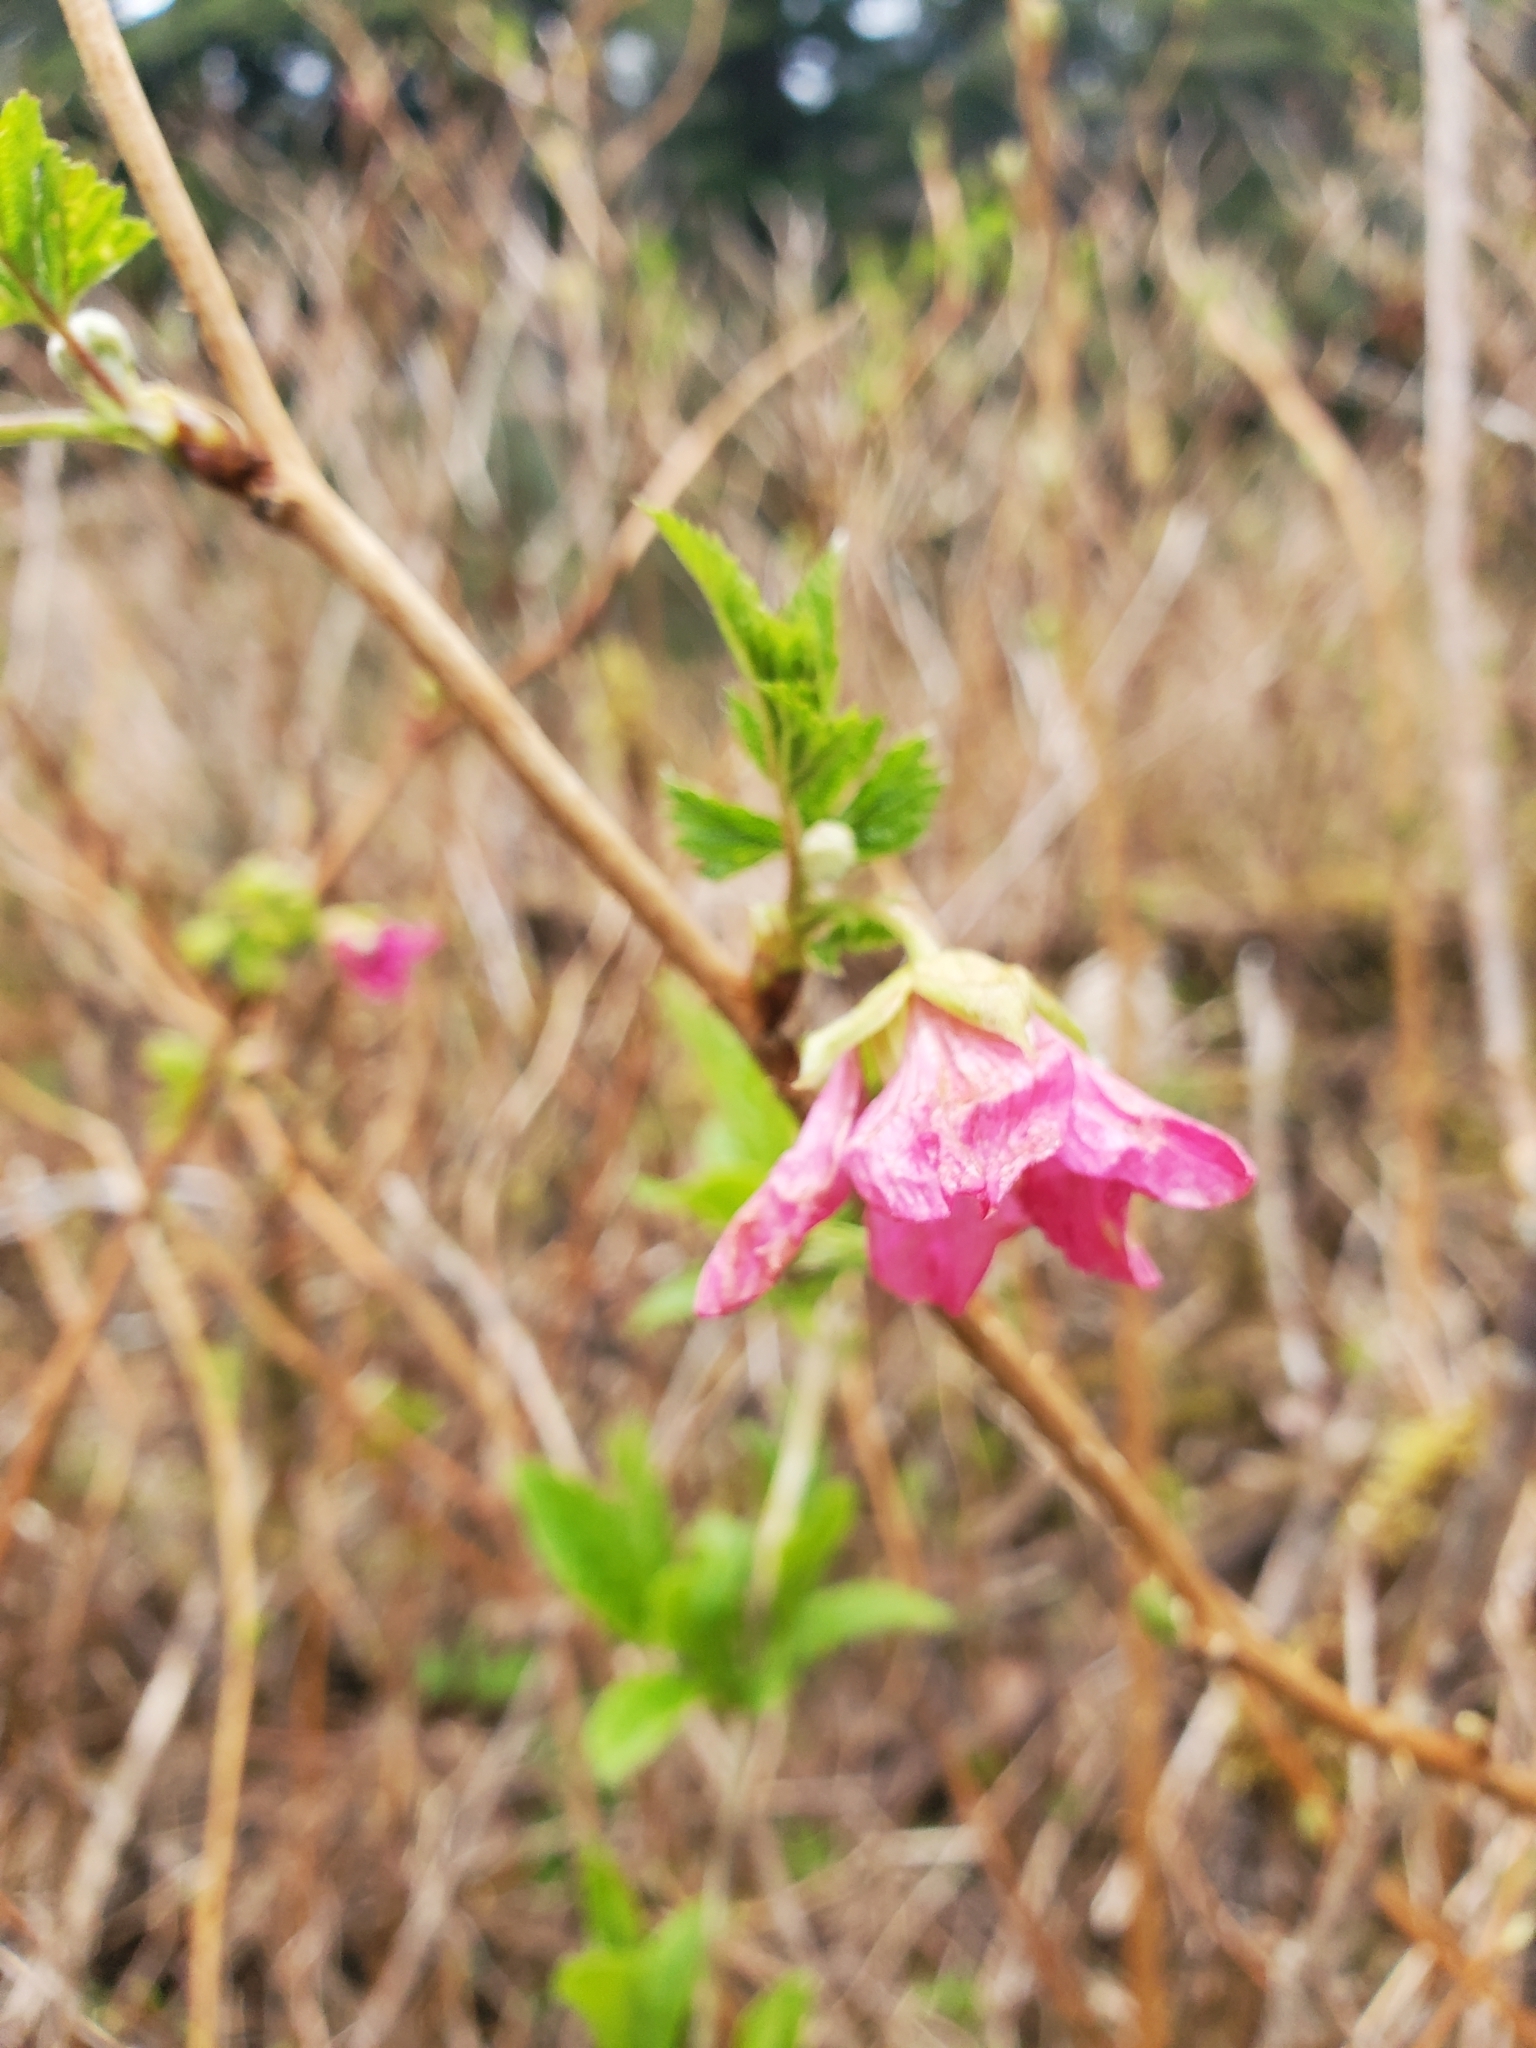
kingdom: Plantae
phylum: Tracheophyta
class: Magnoliopsida
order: Rosales
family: Rosaceae
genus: Rubus
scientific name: Rubus spectabilis
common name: Salmonberry
